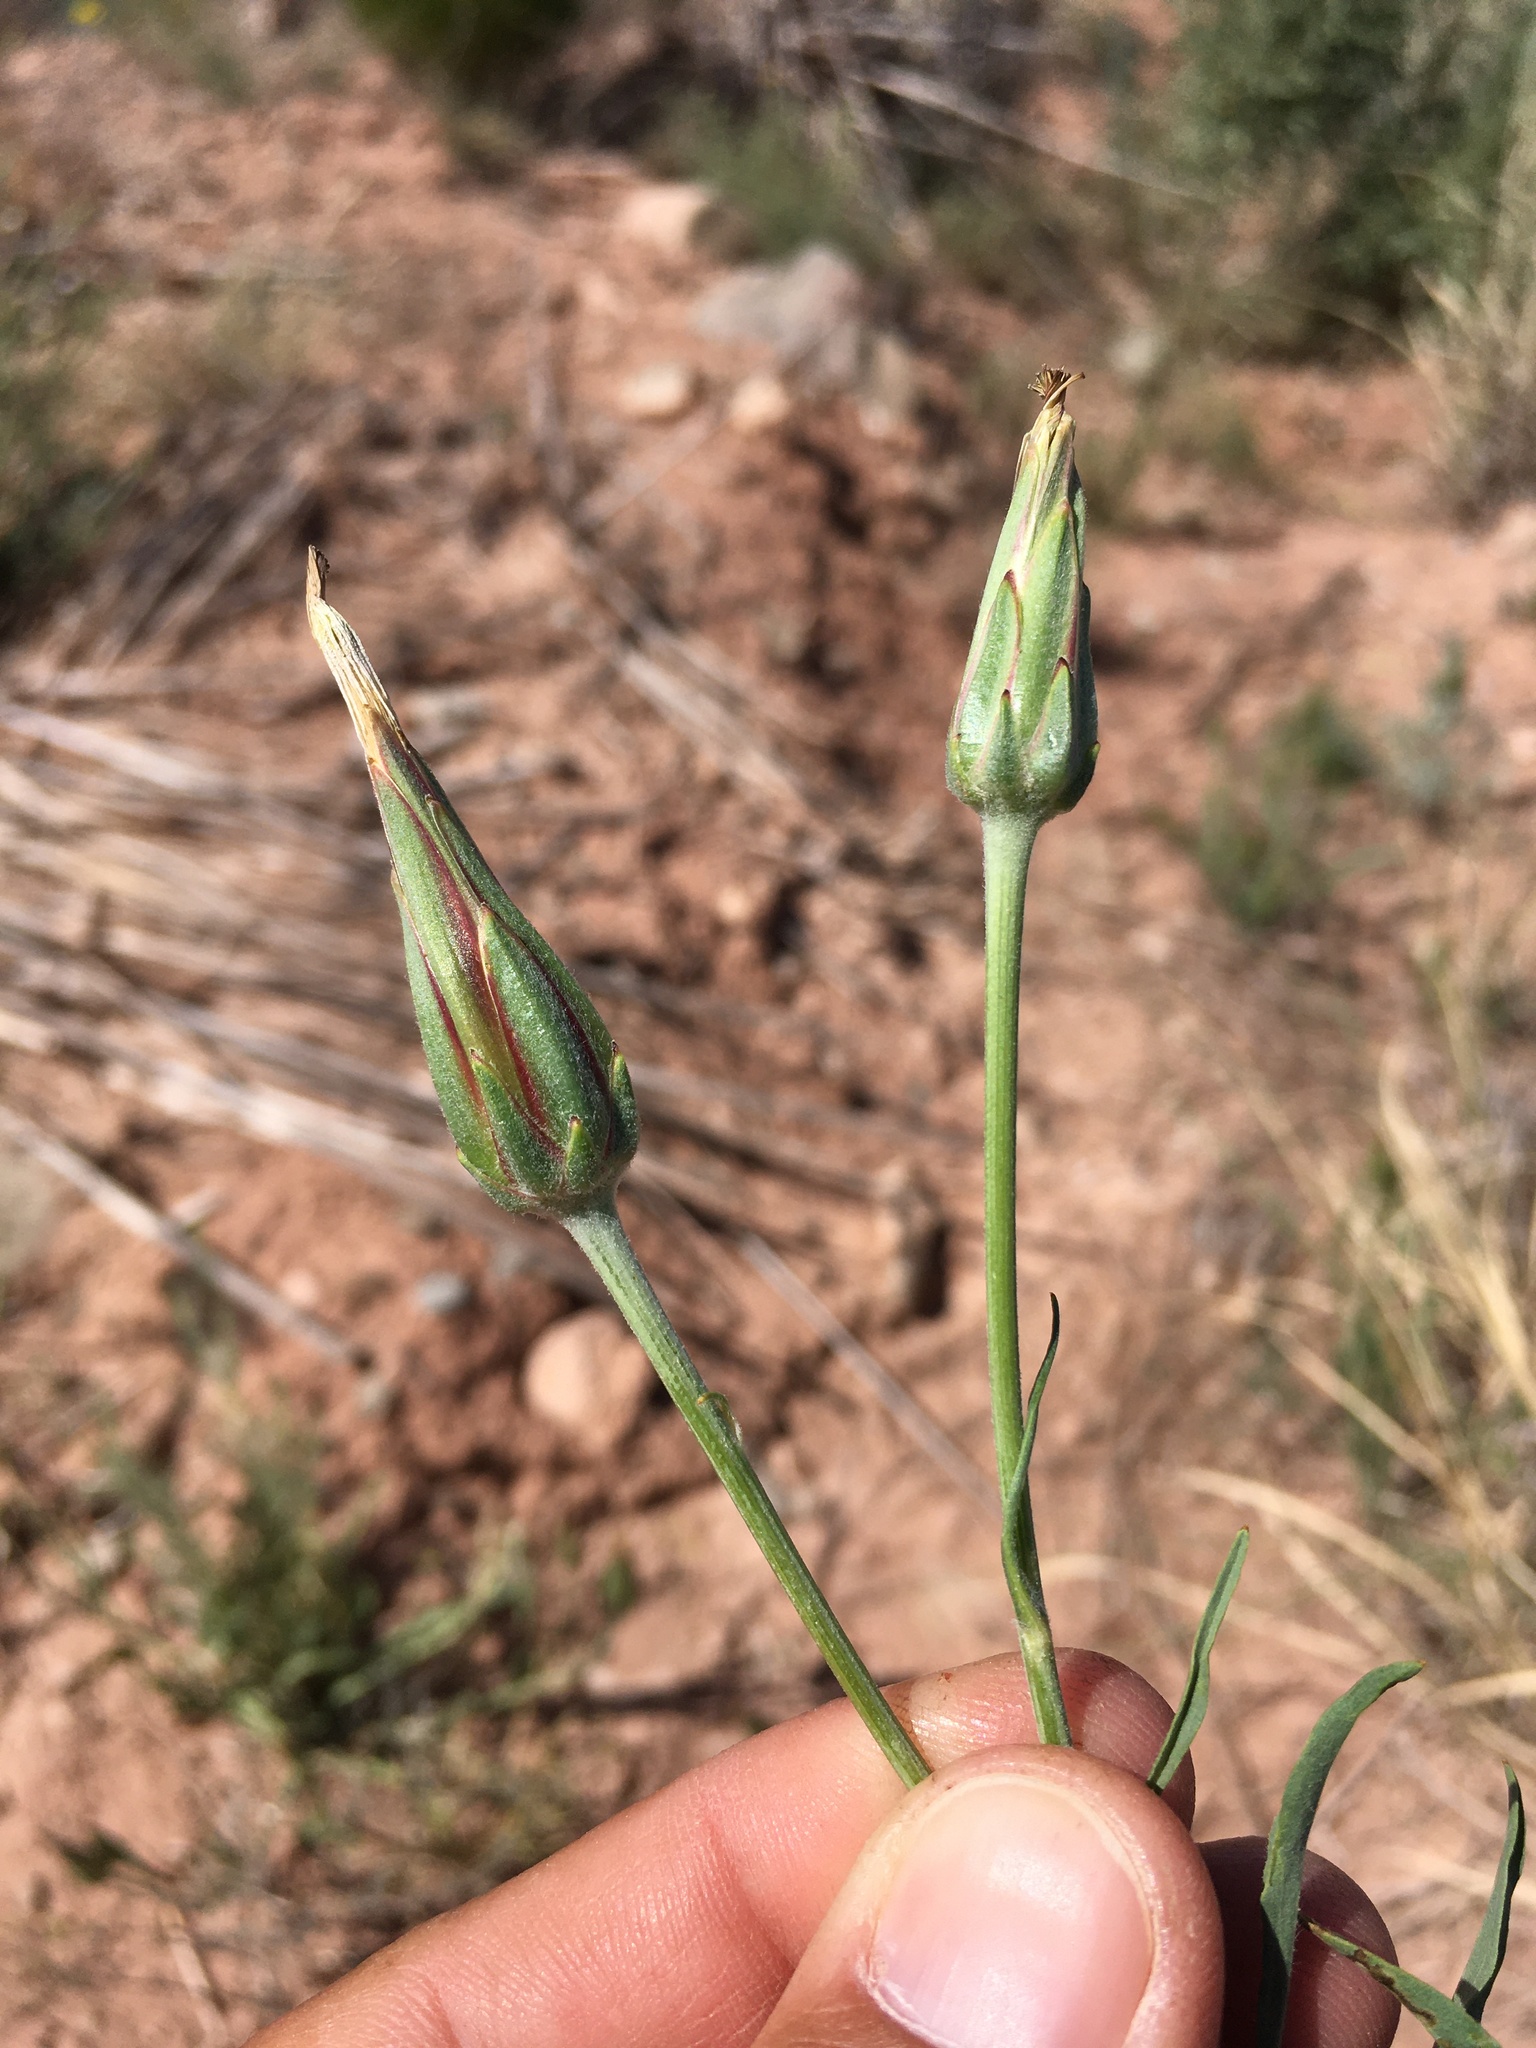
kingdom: Plantae
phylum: Tracheophyta
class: Magnoliopsida
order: Asterales
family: Asteraceae
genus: Scorzonera
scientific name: Scorzonera laciniata
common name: Cutleaf vipergrass
